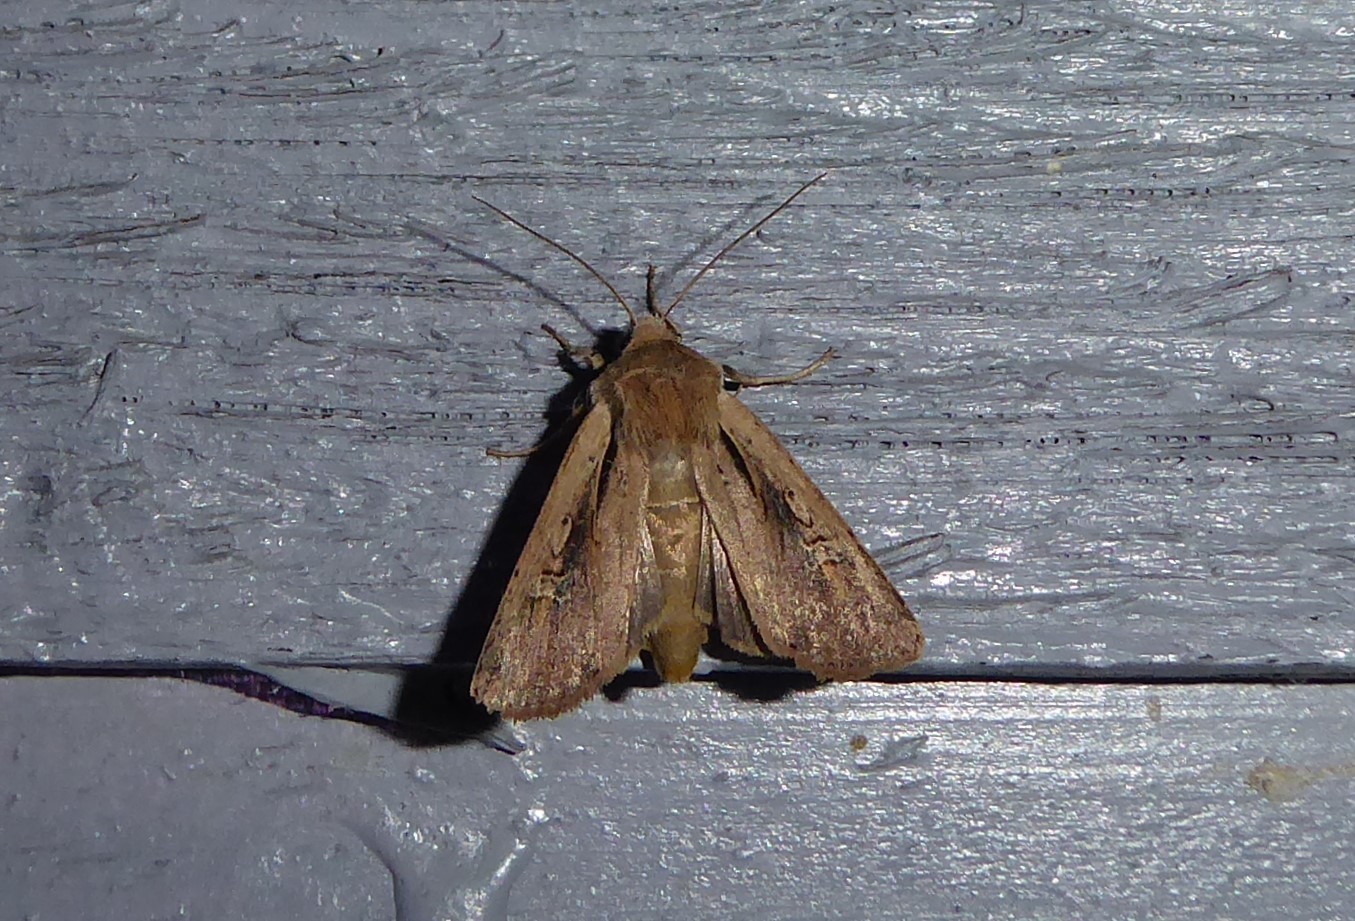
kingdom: Animalia
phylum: Arthropoda
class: Insecta
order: Lepidoptera
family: Noctuidae
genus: Ichneutica
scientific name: Ichneutica atristriga
